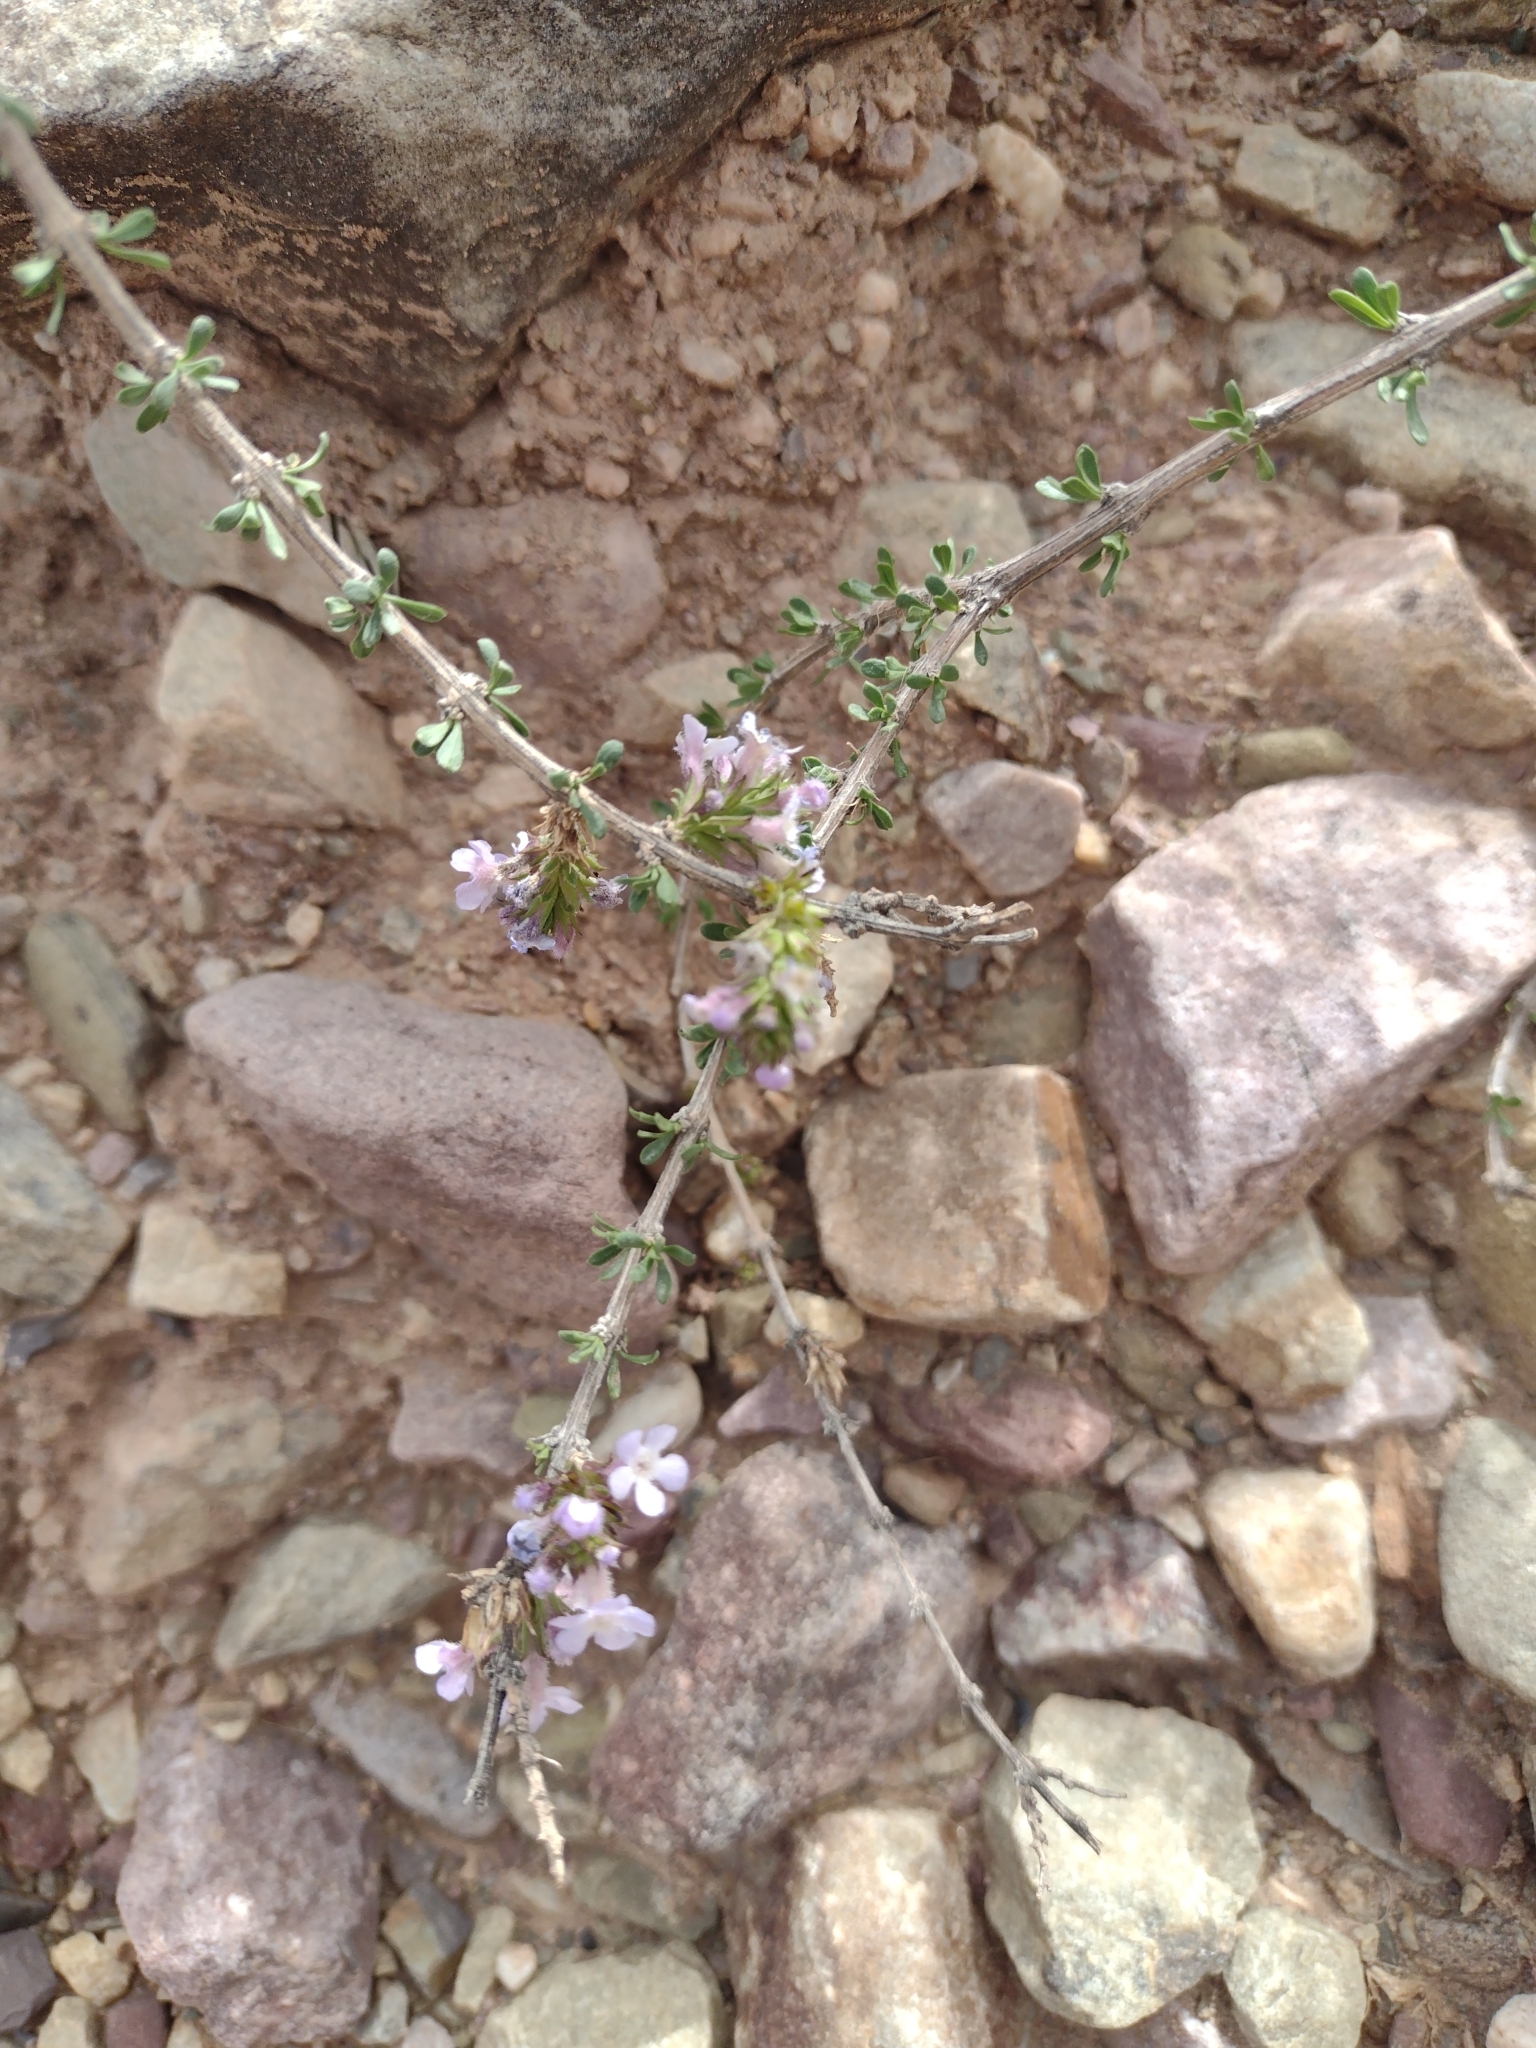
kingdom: Plantae
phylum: Tracheophyta
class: Magnoliopsida
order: Lamiales
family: Verbenaceae
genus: Mulguraea
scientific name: Mulguraea asparagoides
